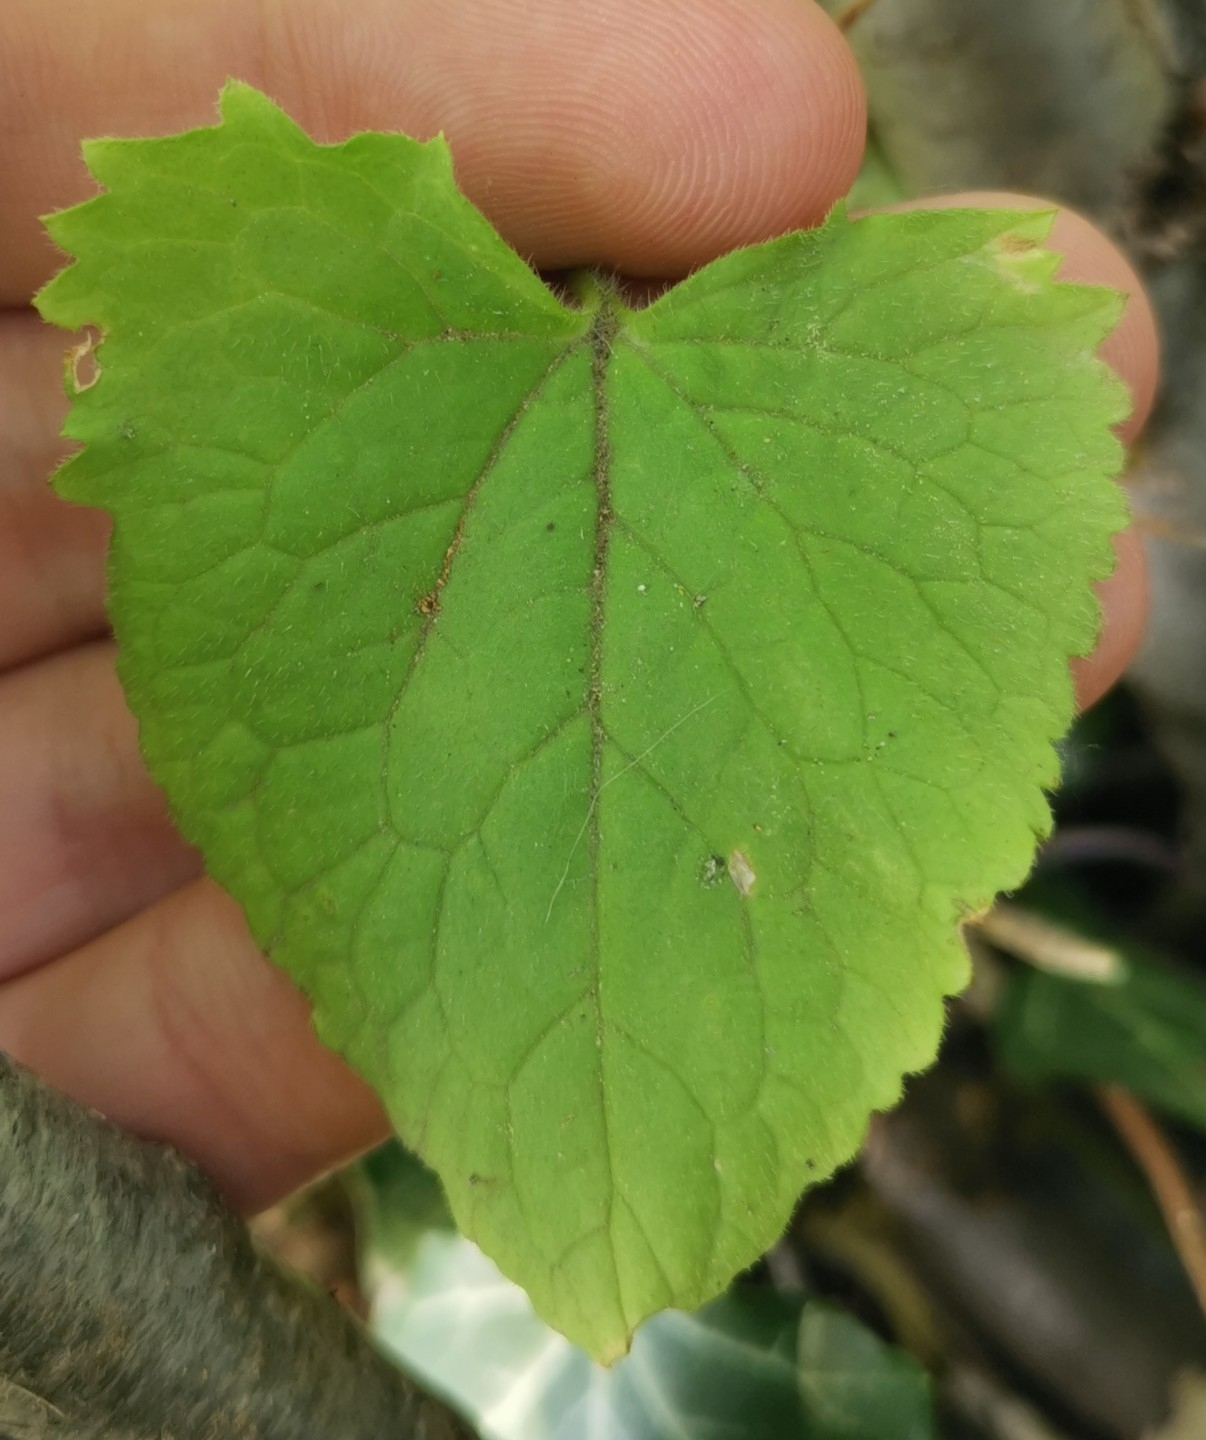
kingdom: Plantae
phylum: Tracheophyta
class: Magnoliopsida
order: Brassicales
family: Brassicaceae
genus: Lunaria
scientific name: Lunaria annua
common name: Honesty
